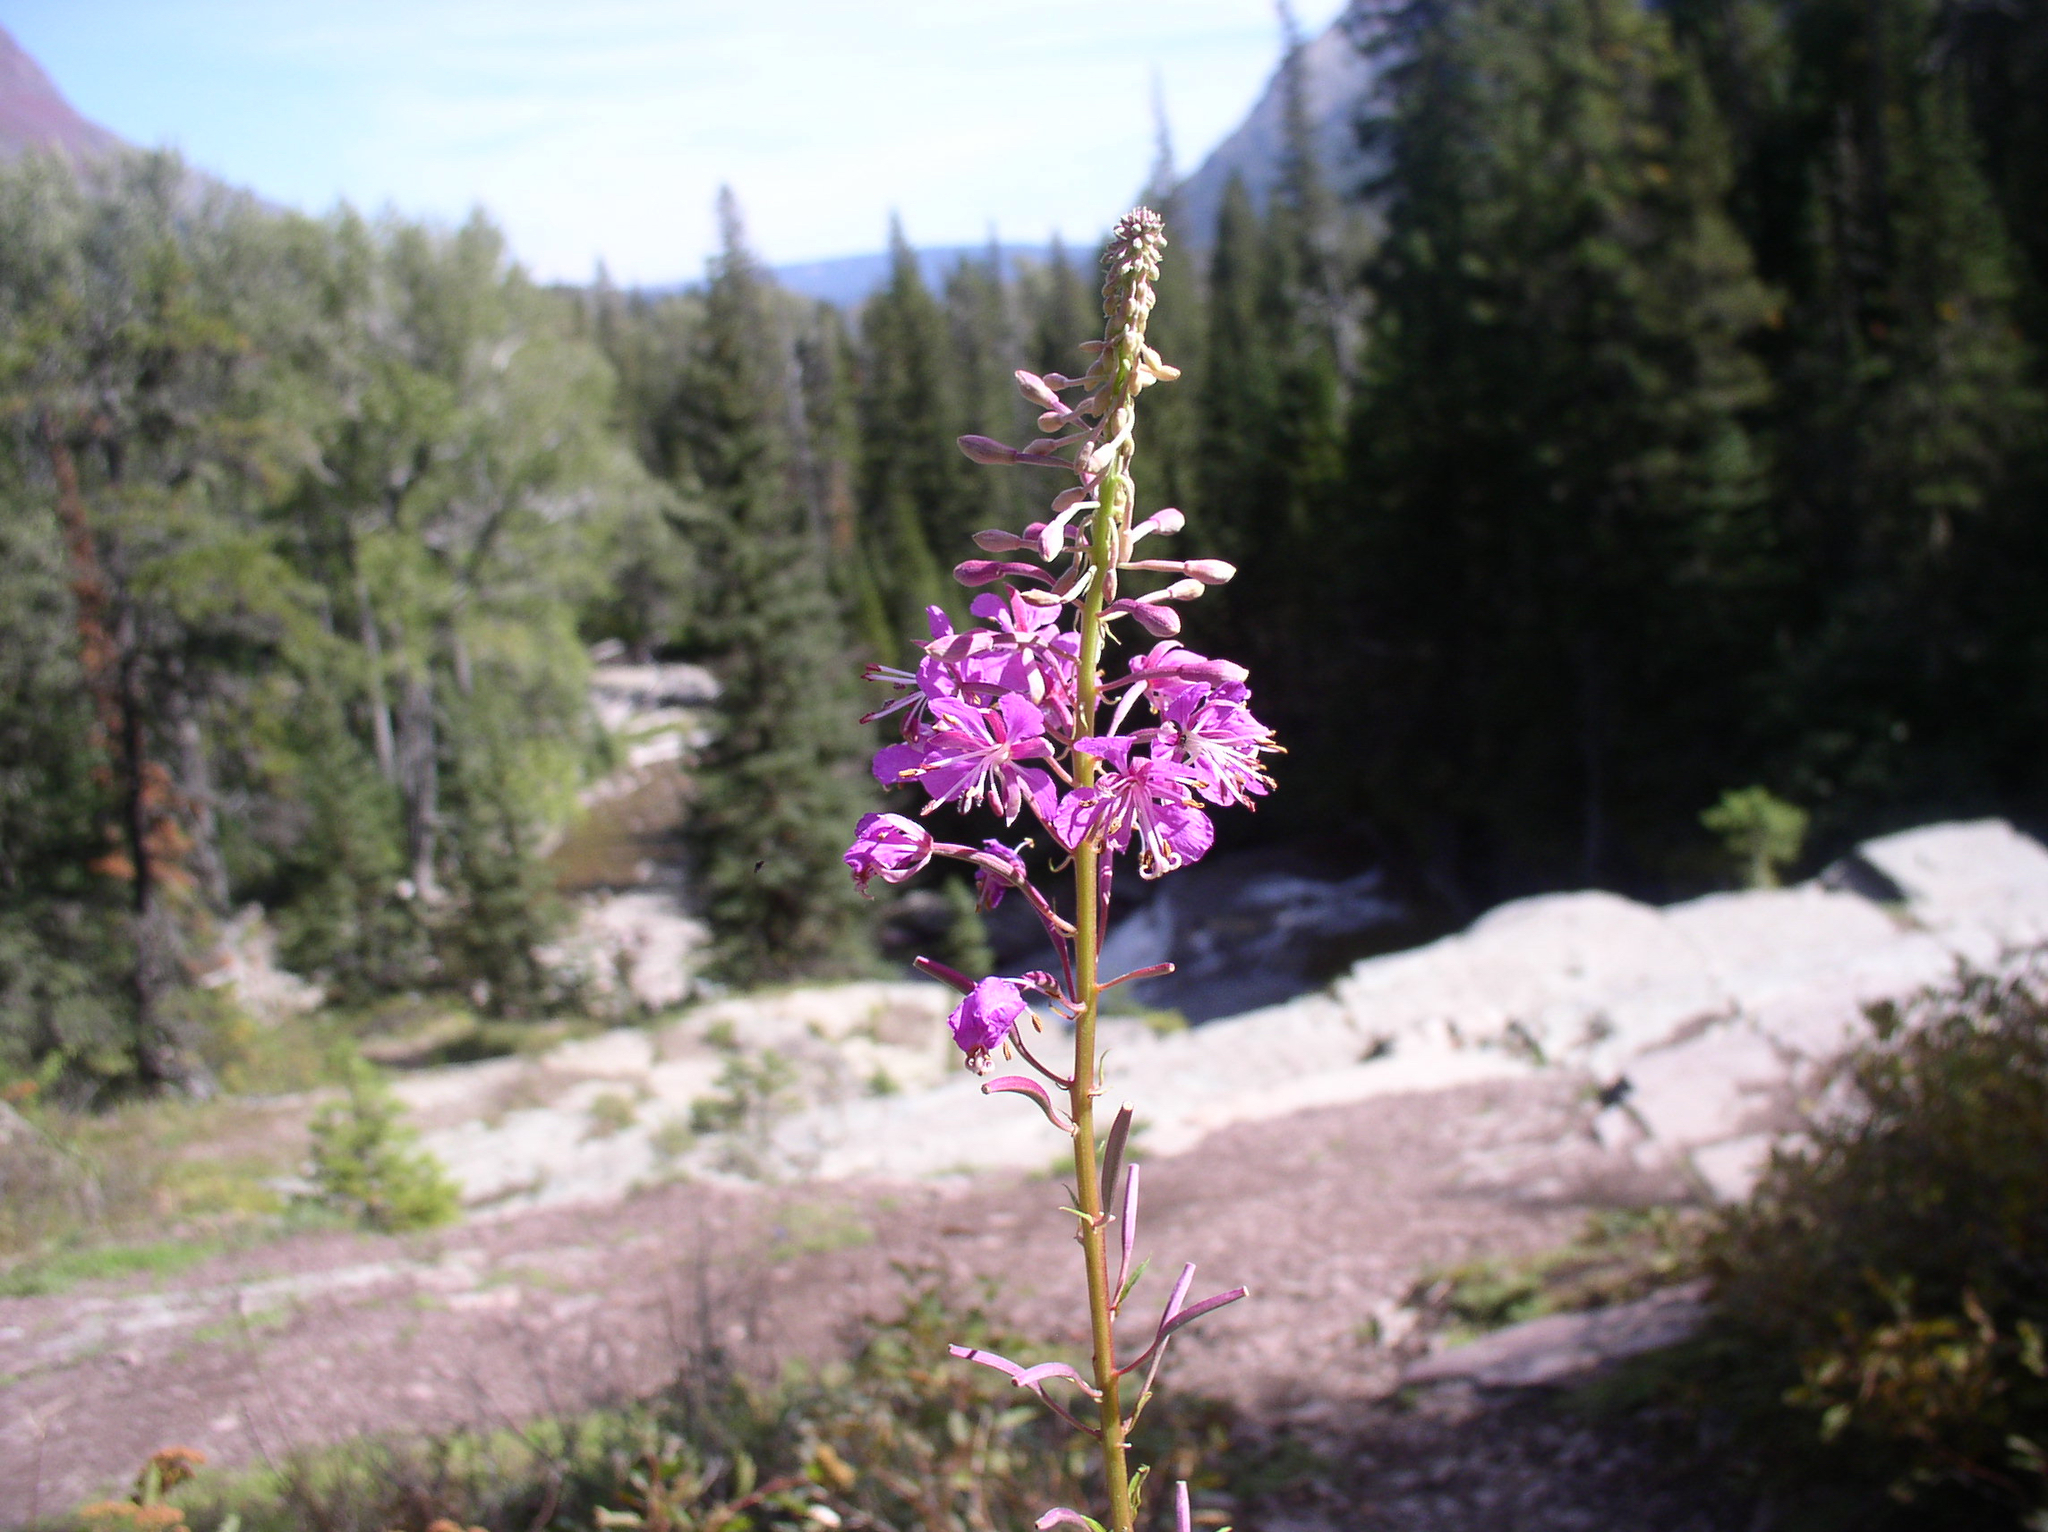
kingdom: Plantae
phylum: Tracheophyta
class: Magnoliopsida
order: Myrtales
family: Onagraceae
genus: Chamaenerion
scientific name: Chamaenerion angustifolium
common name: Fireweed
